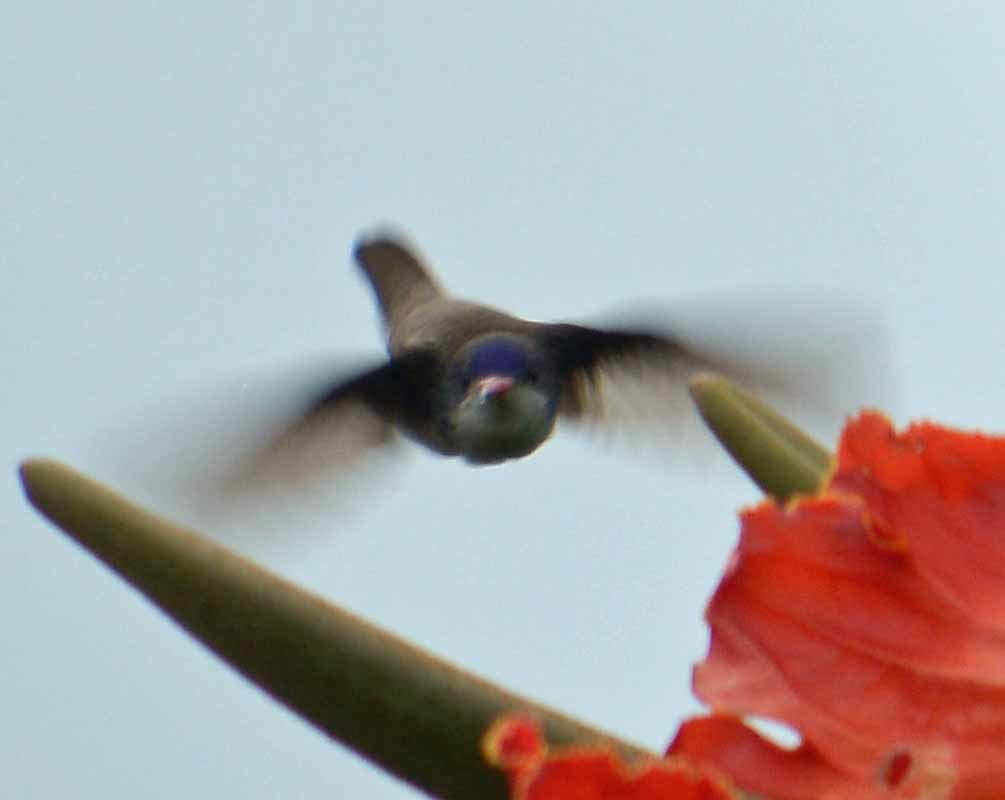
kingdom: Animalia
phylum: Chordata
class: Aves
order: Apodiformes
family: Trochilidae
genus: Leucolia
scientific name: Leucolia violiceps
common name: Violet-crowned hummingbird
